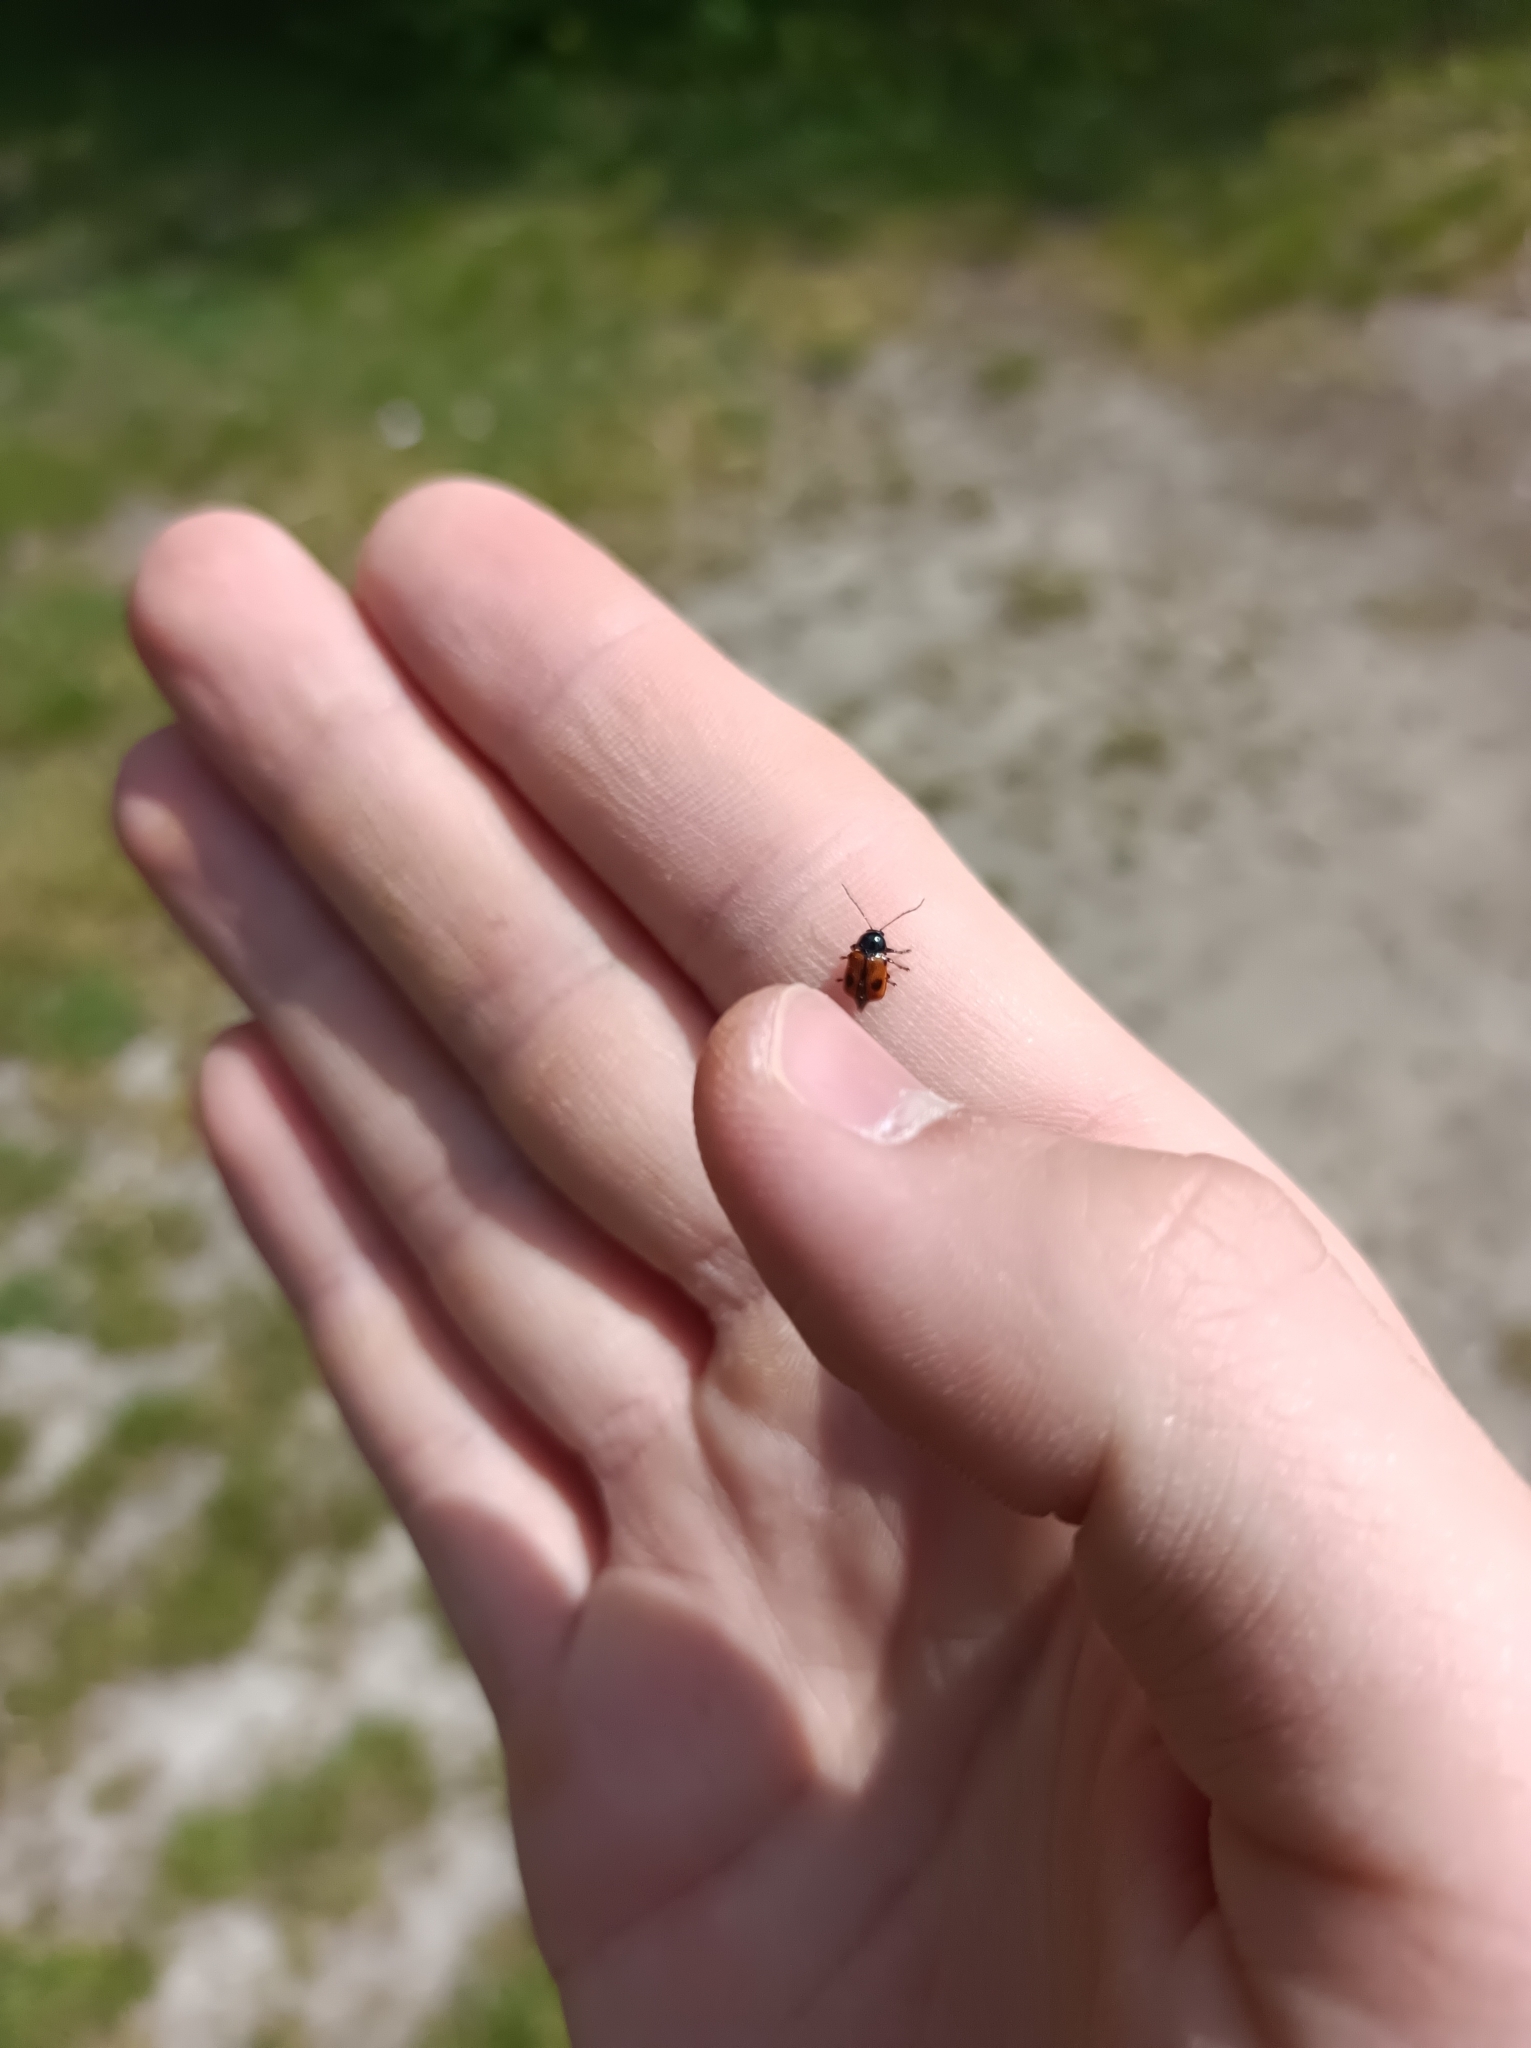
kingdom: Animalia
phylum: Arthropoda
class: Insecta
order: Coleoptera
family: Chrysomelidae
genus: Chiridopsis
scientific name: Chiridopsis bipunctata
